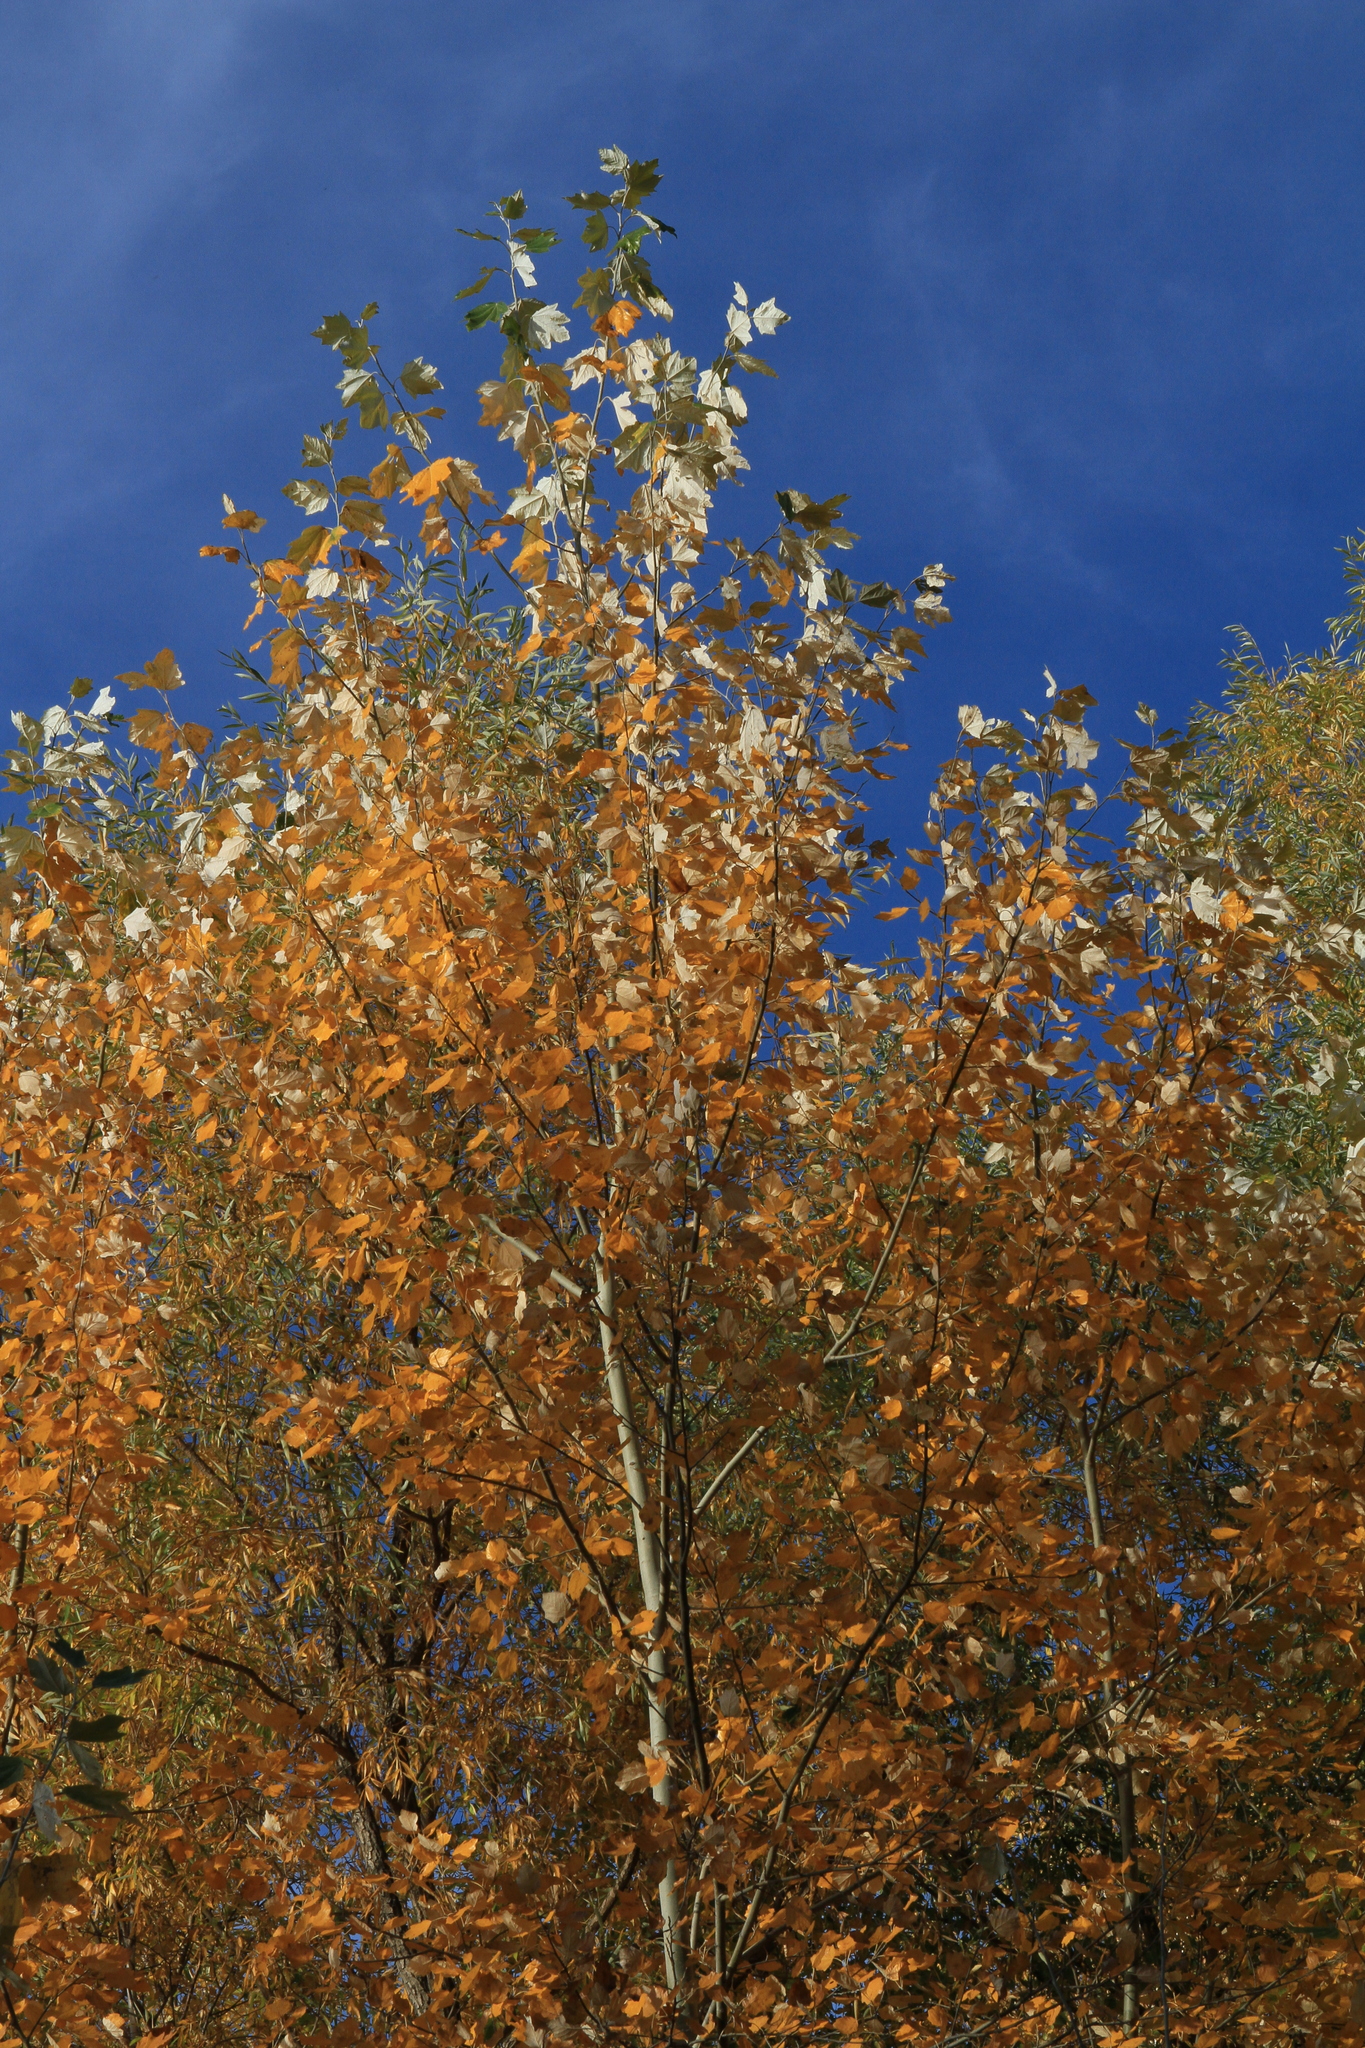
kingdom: Plantae
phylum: Tracheophyta
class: Magnoliopsida
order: Malpighiales
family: Salicaceae
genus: Populus
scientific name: Populus alba
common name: White poplar
